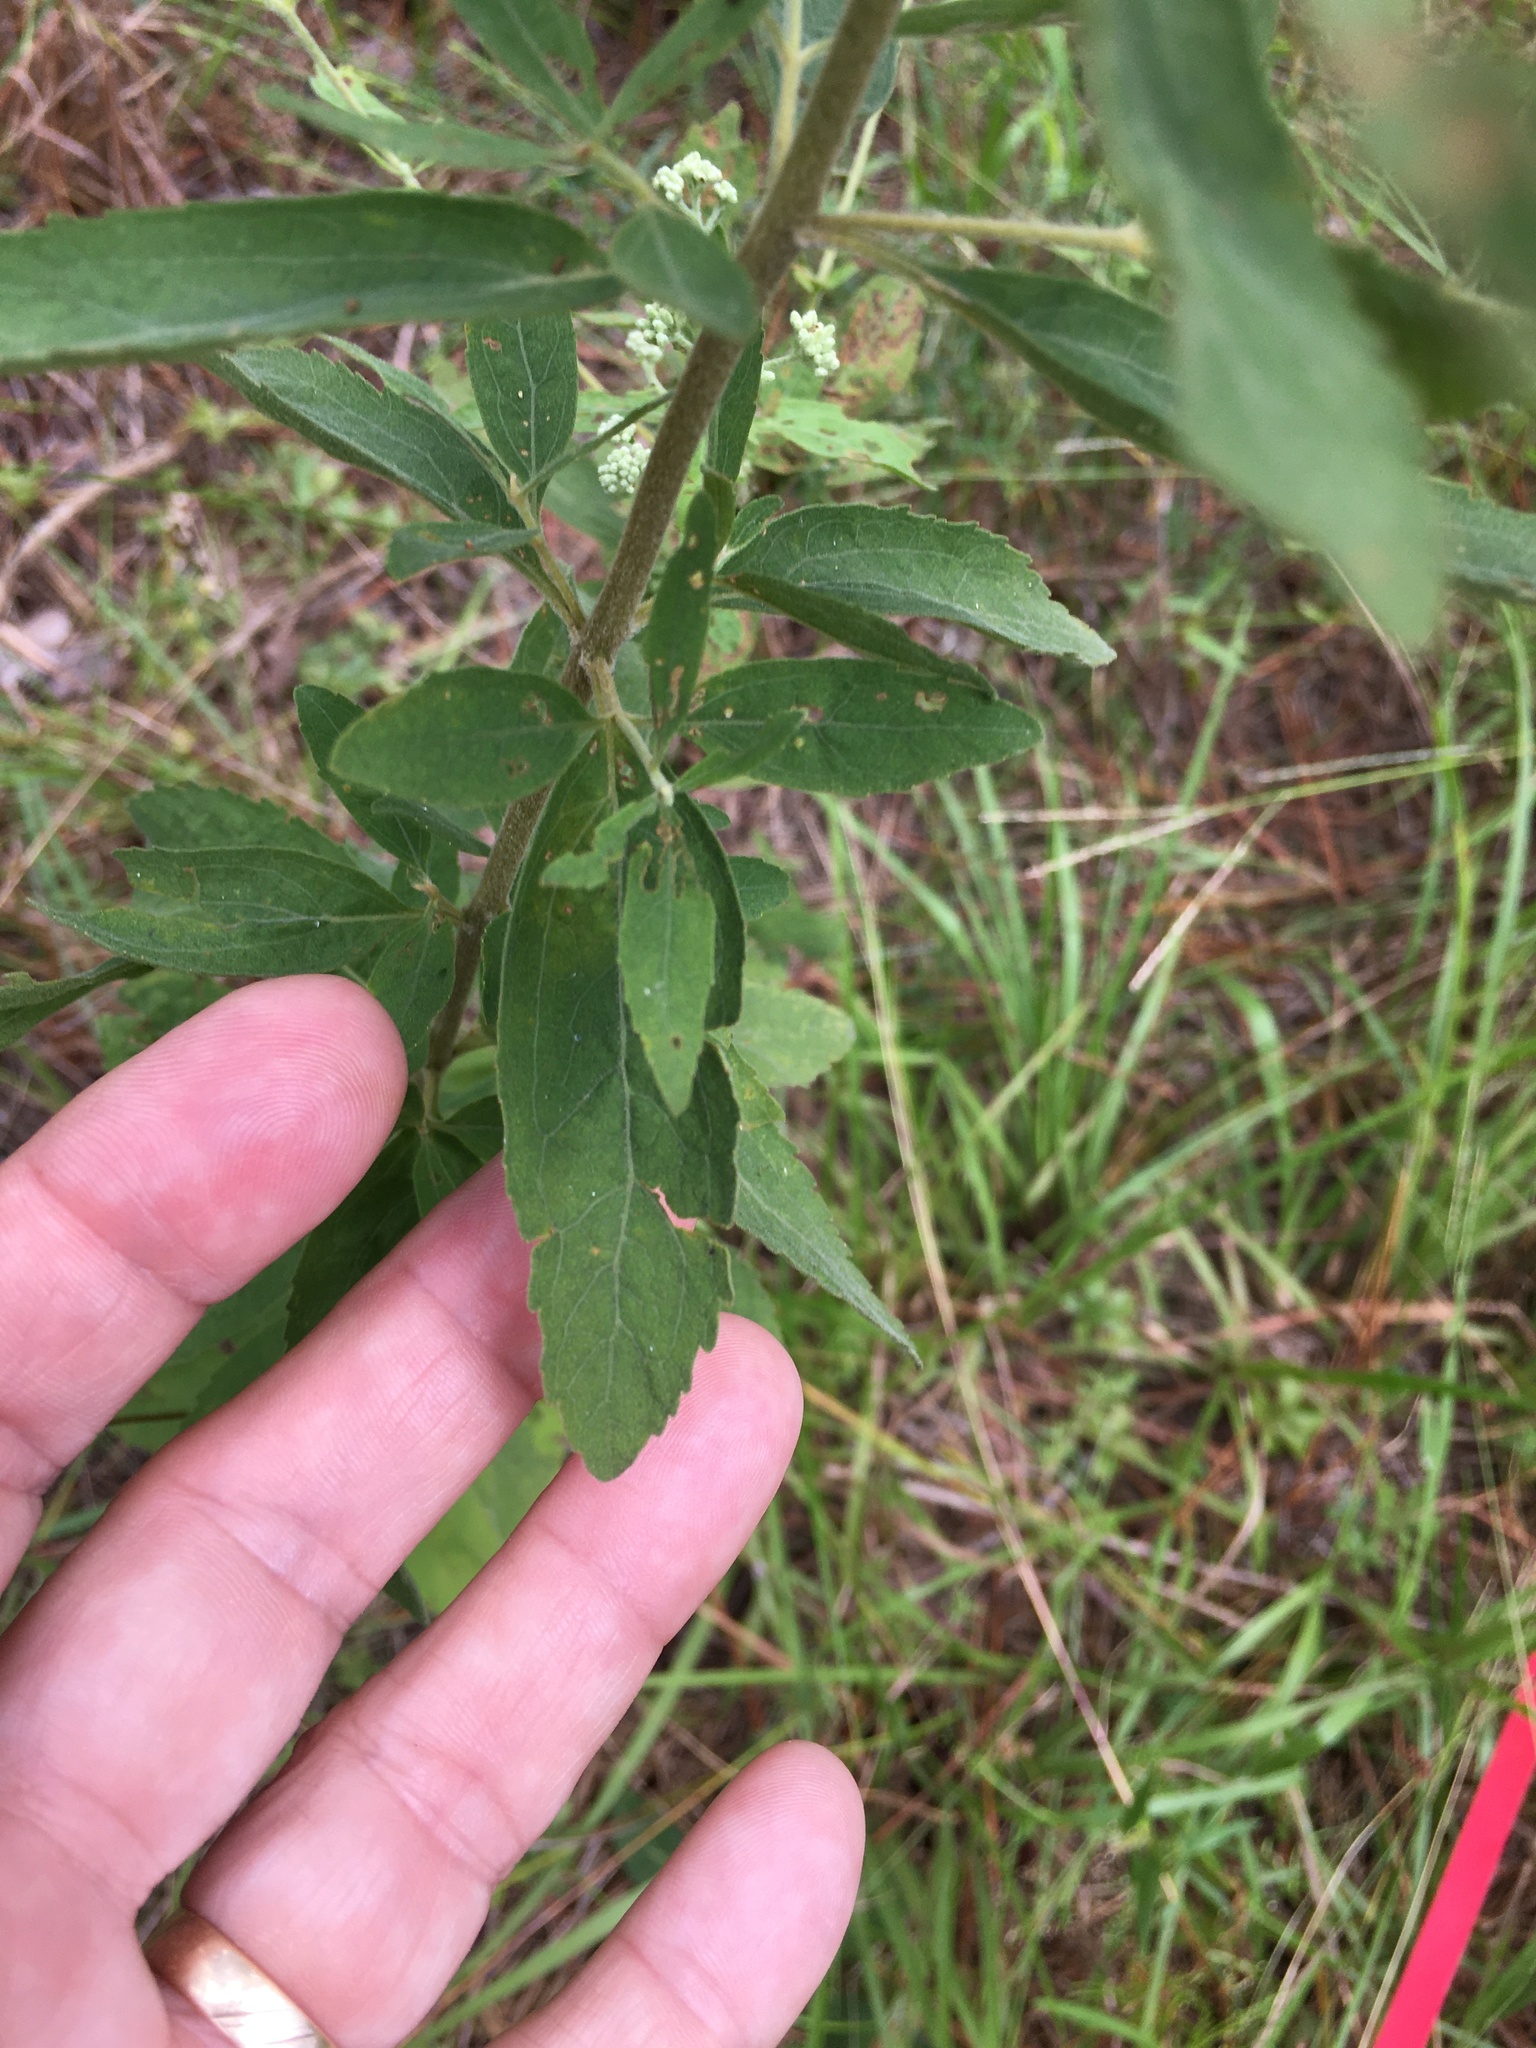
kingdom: Plantae
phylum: Tracheophyta
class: Magnoliopsida
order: Asterales
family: Asteraceae
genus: Eupatorium
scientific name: Eupatorium semiserratum
